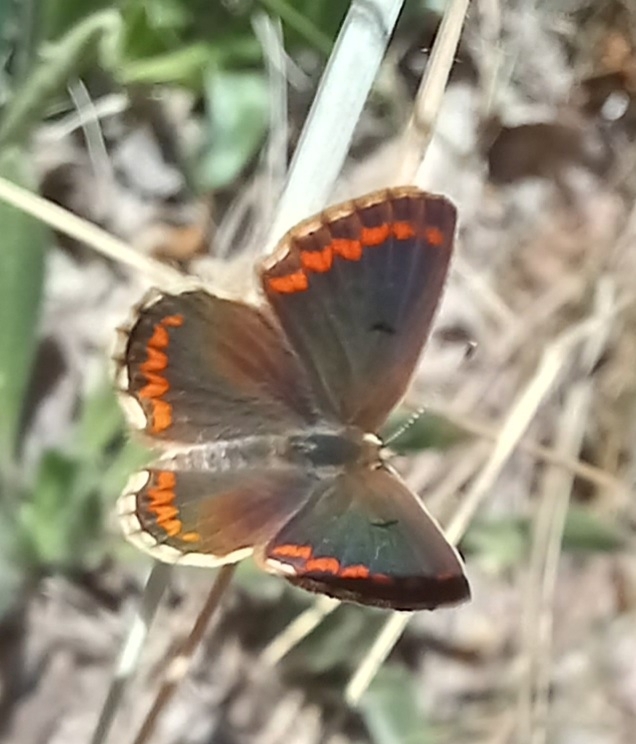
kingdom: Animalia
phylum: Arthropoda
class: Insecta
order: Lepidoptera
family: Lycaenidae
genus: Aricia
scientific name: Aricia cramera
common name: Eschscholtz´s brown  argus
